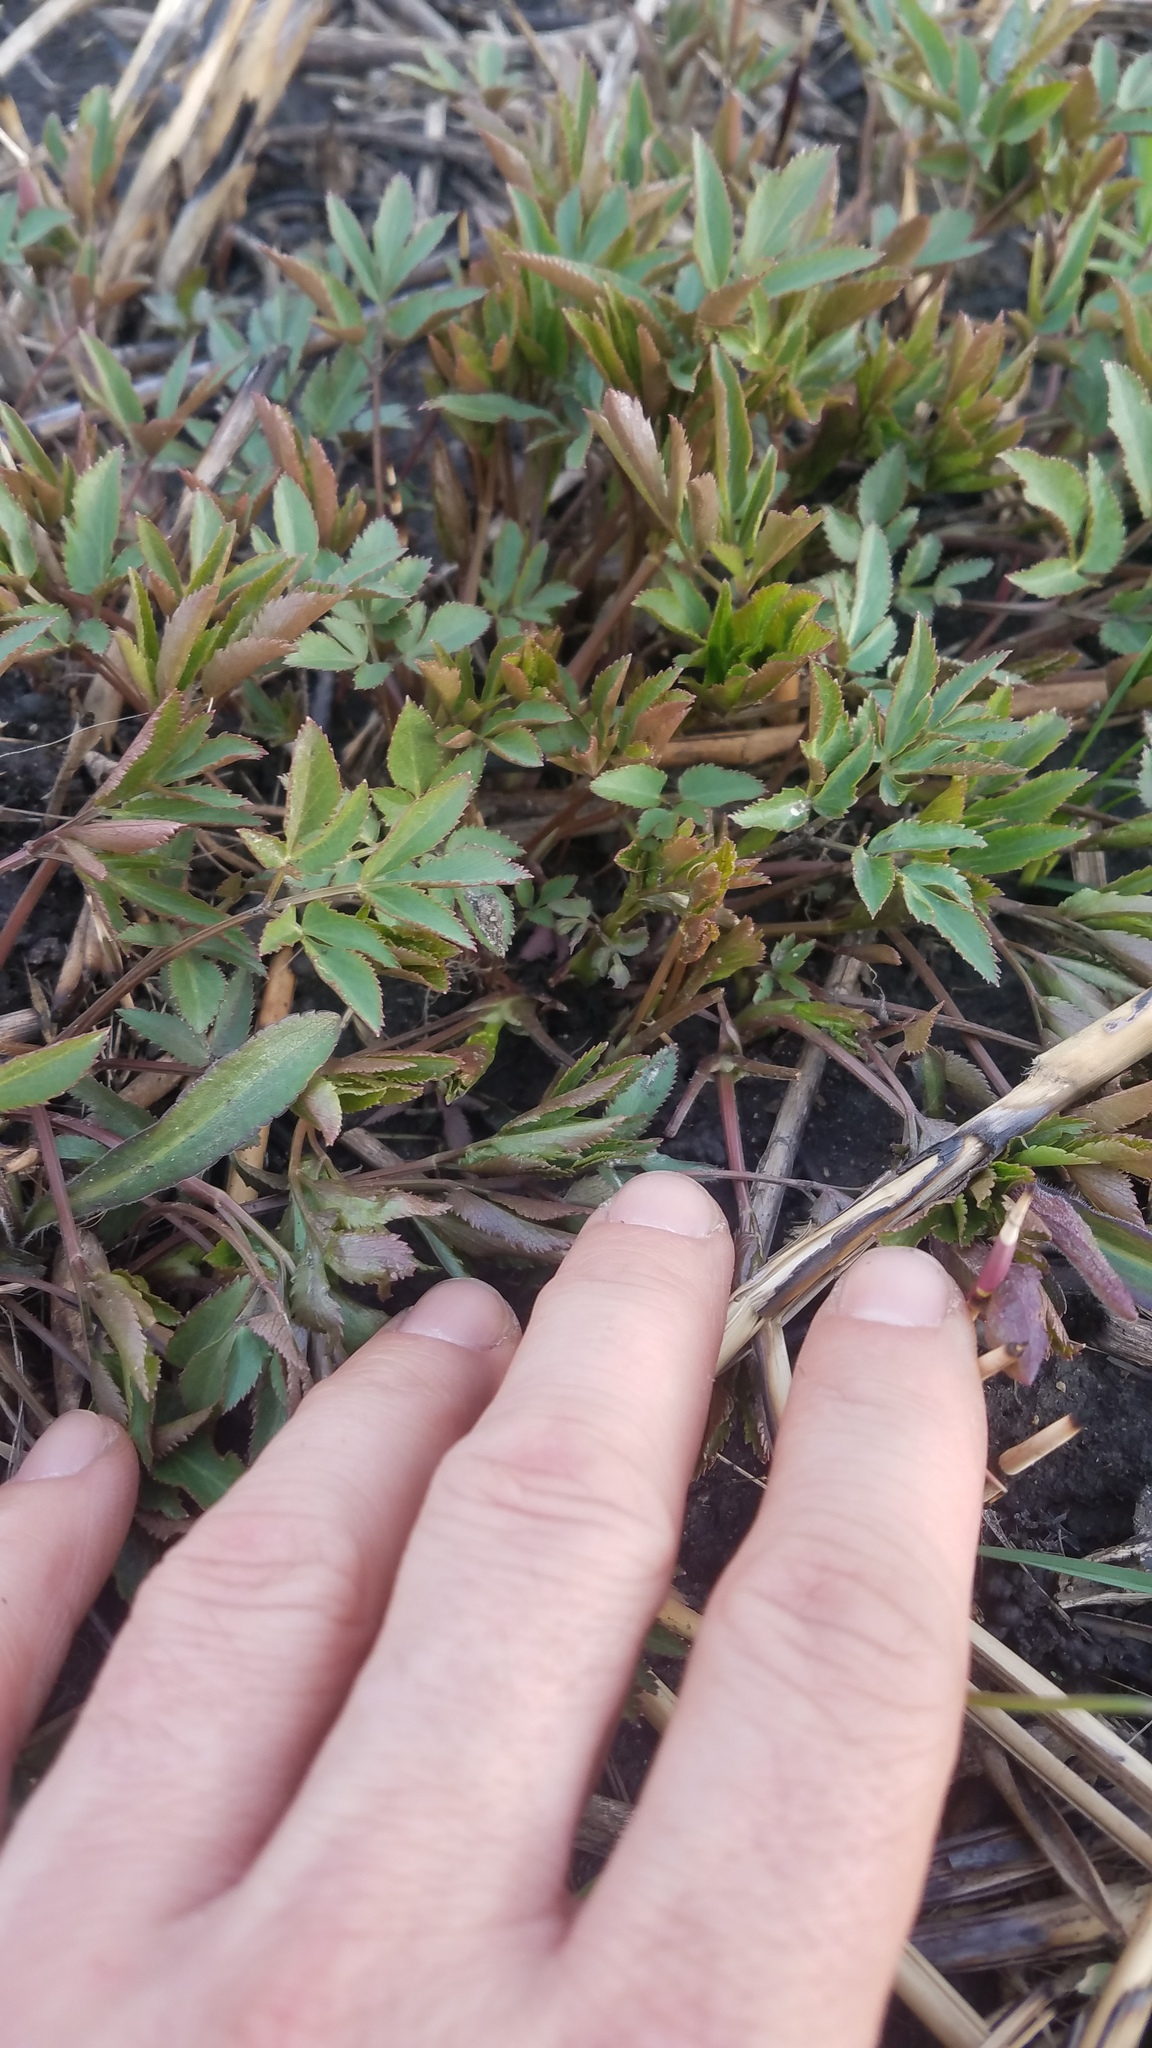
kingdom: Plantae
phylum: Tracheophyta
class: Magnoliopsida
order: Apiales
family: Apiaceae
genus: Zizia
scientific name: Zizia aurea
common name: Golden alexanders
